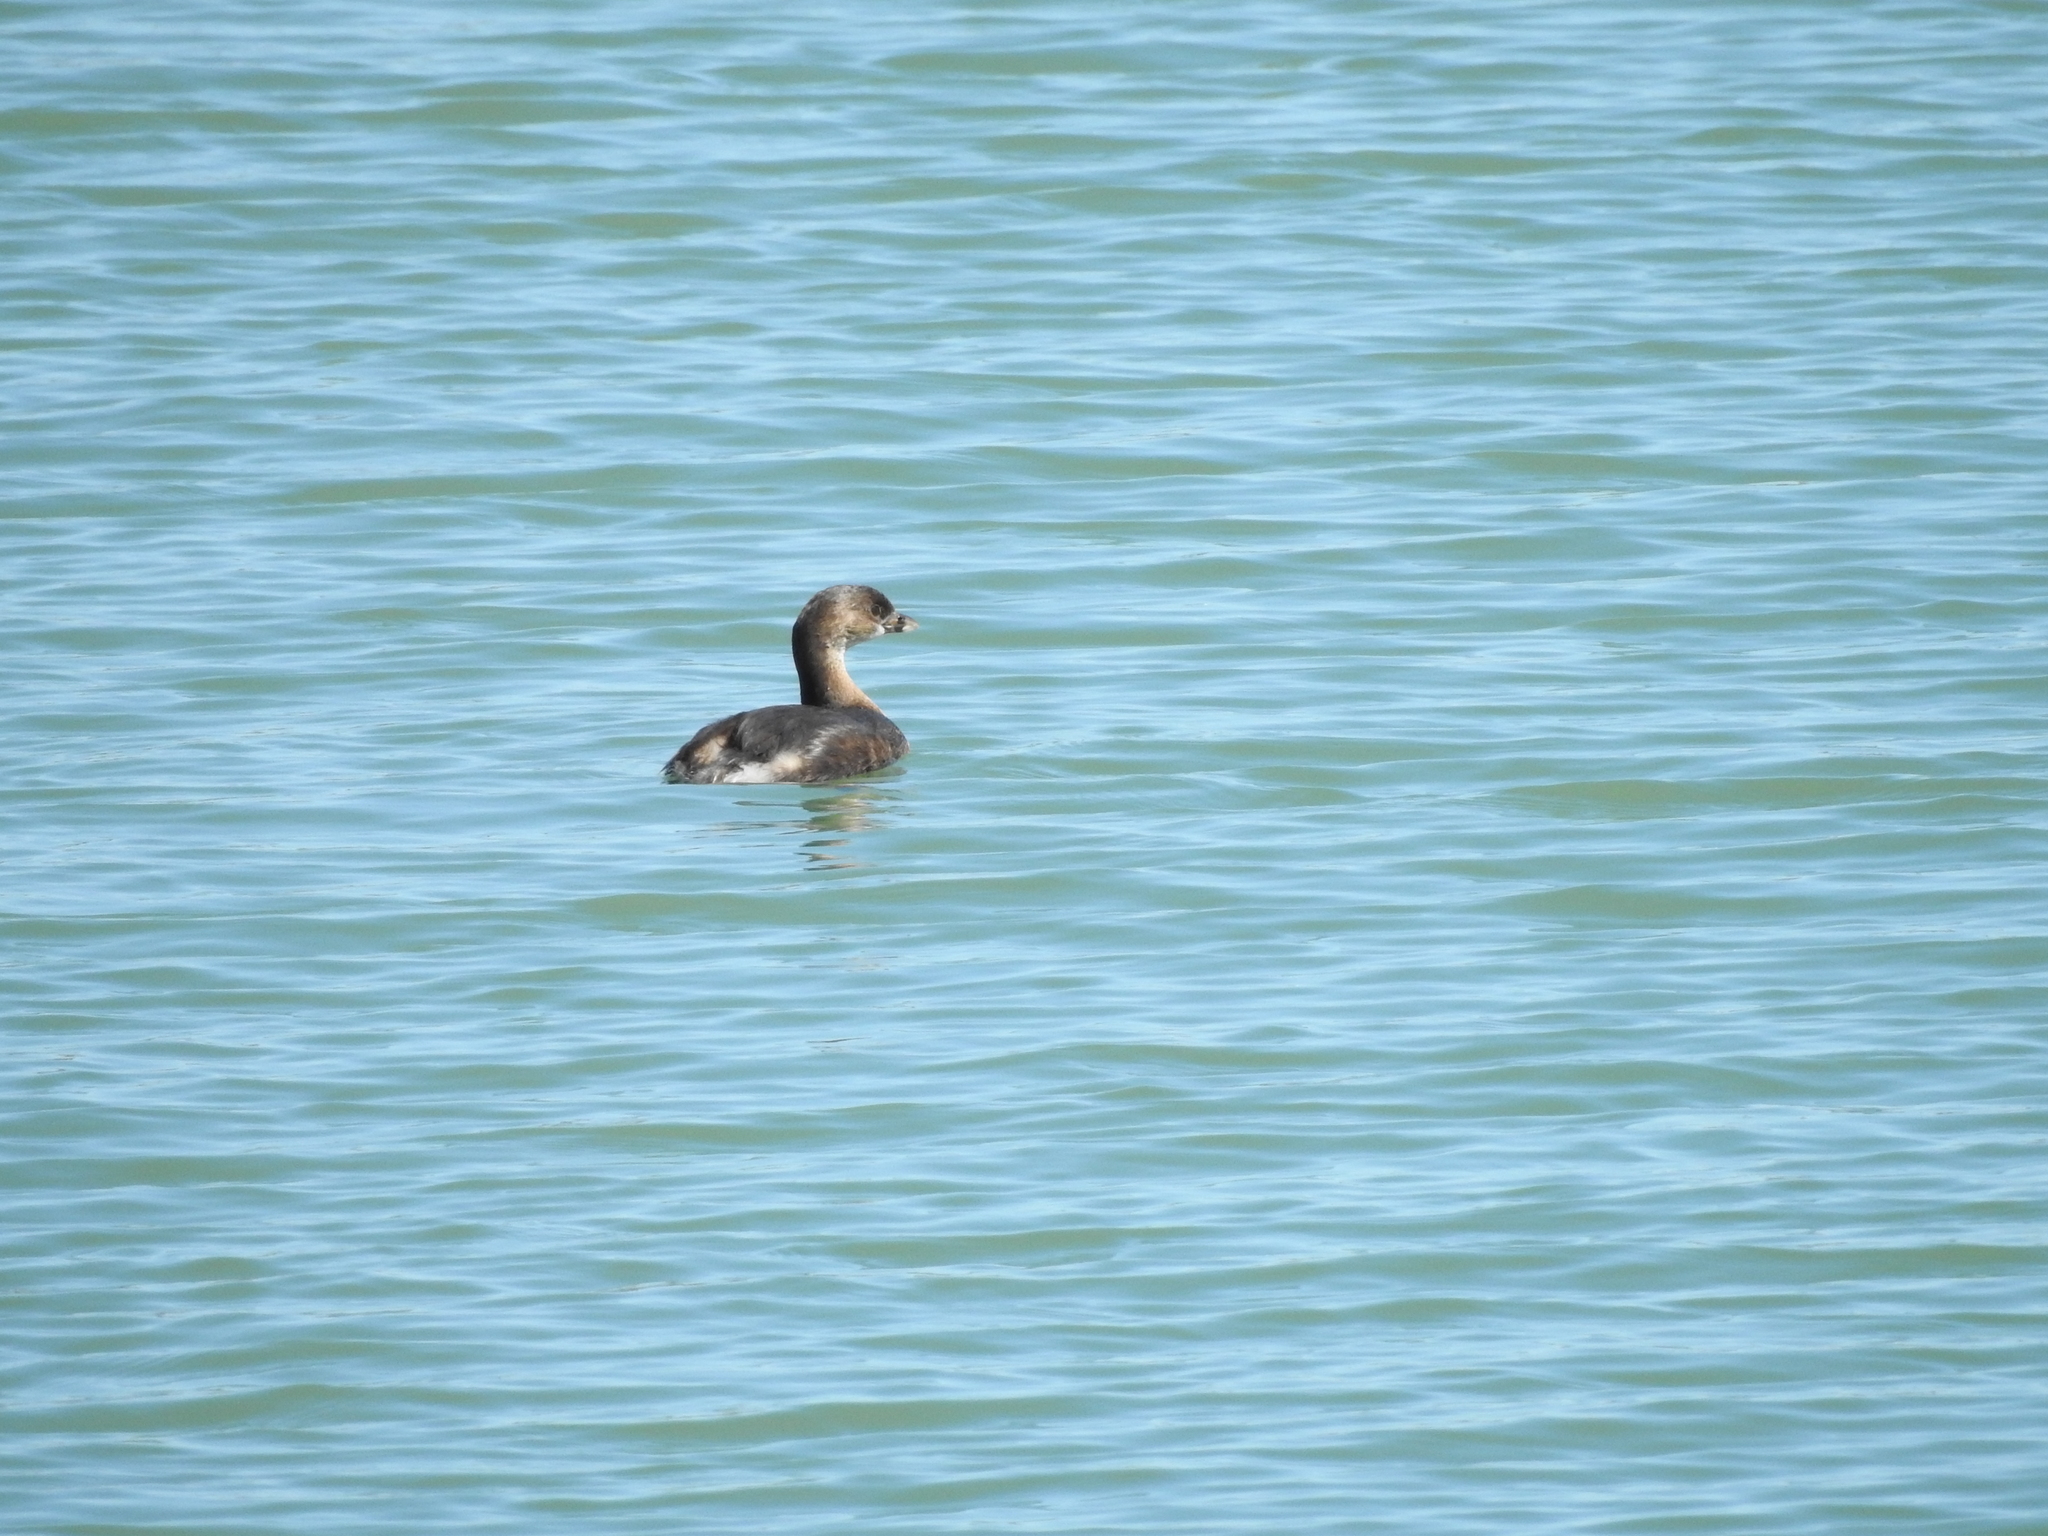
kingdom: Animalia
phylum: Chordata
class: Aves
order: Podicipediformes
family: Podicipedidae
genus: Podilymbus
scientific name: Podilymbus podiceps
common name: Pied-billed grebe
